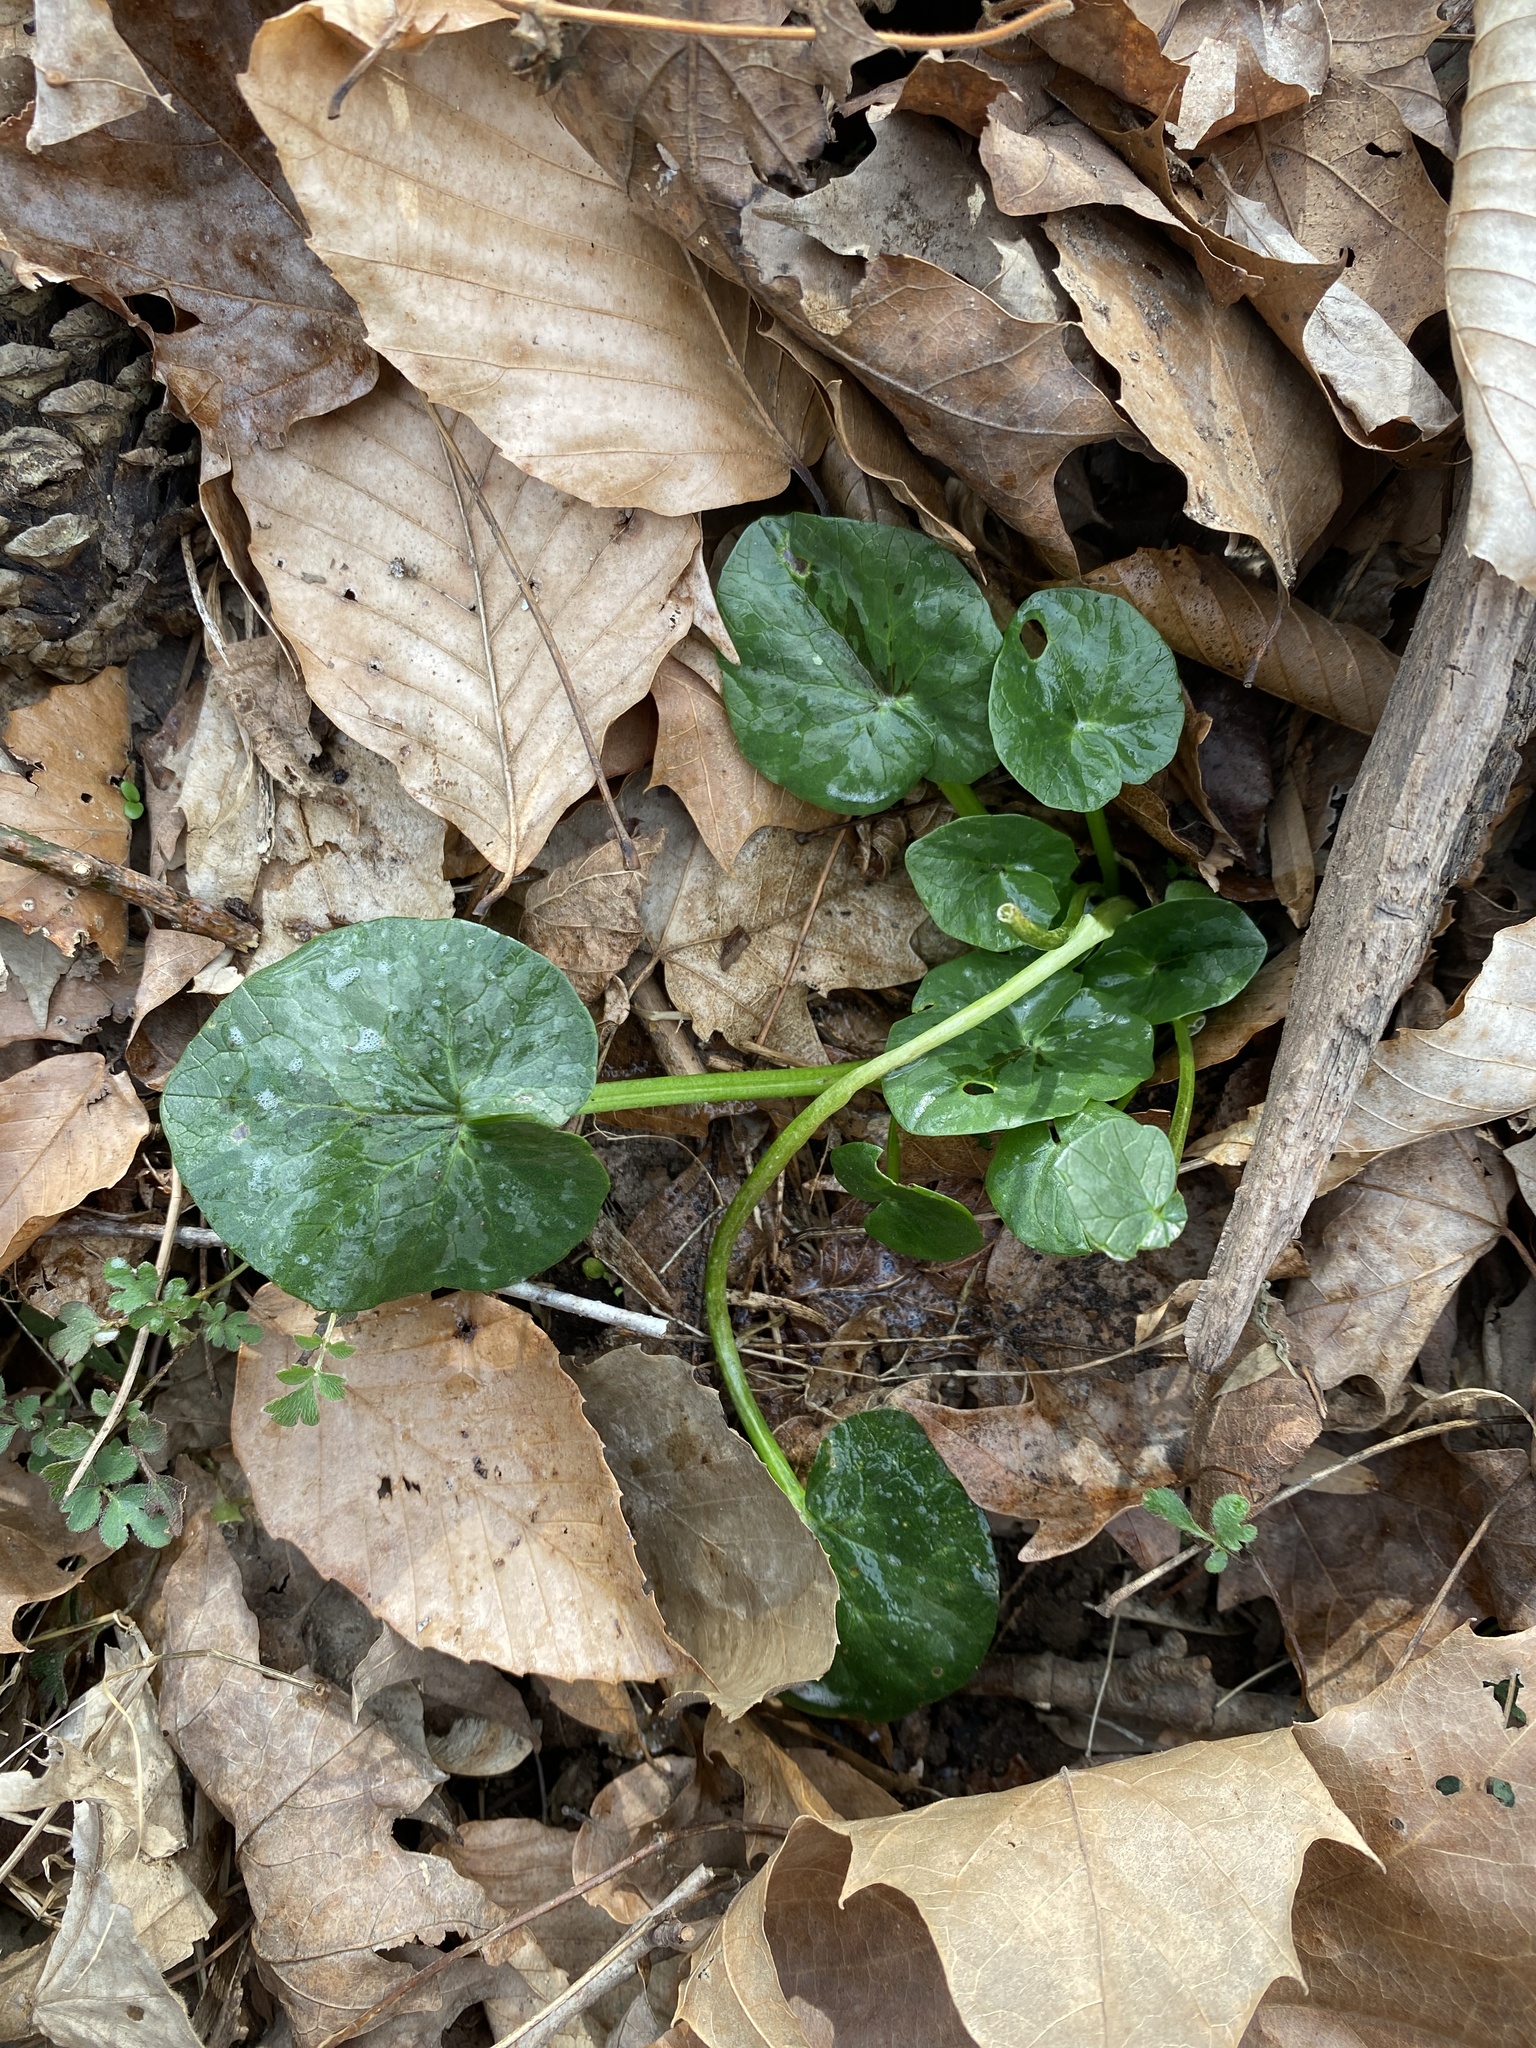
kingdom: Plantae
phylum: Tracheophyta
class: Magnoliopsida
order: Ranunculales
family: Ranunculaceae
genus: Ficaria
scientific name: Ficaria verna
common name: Lesser celandine
